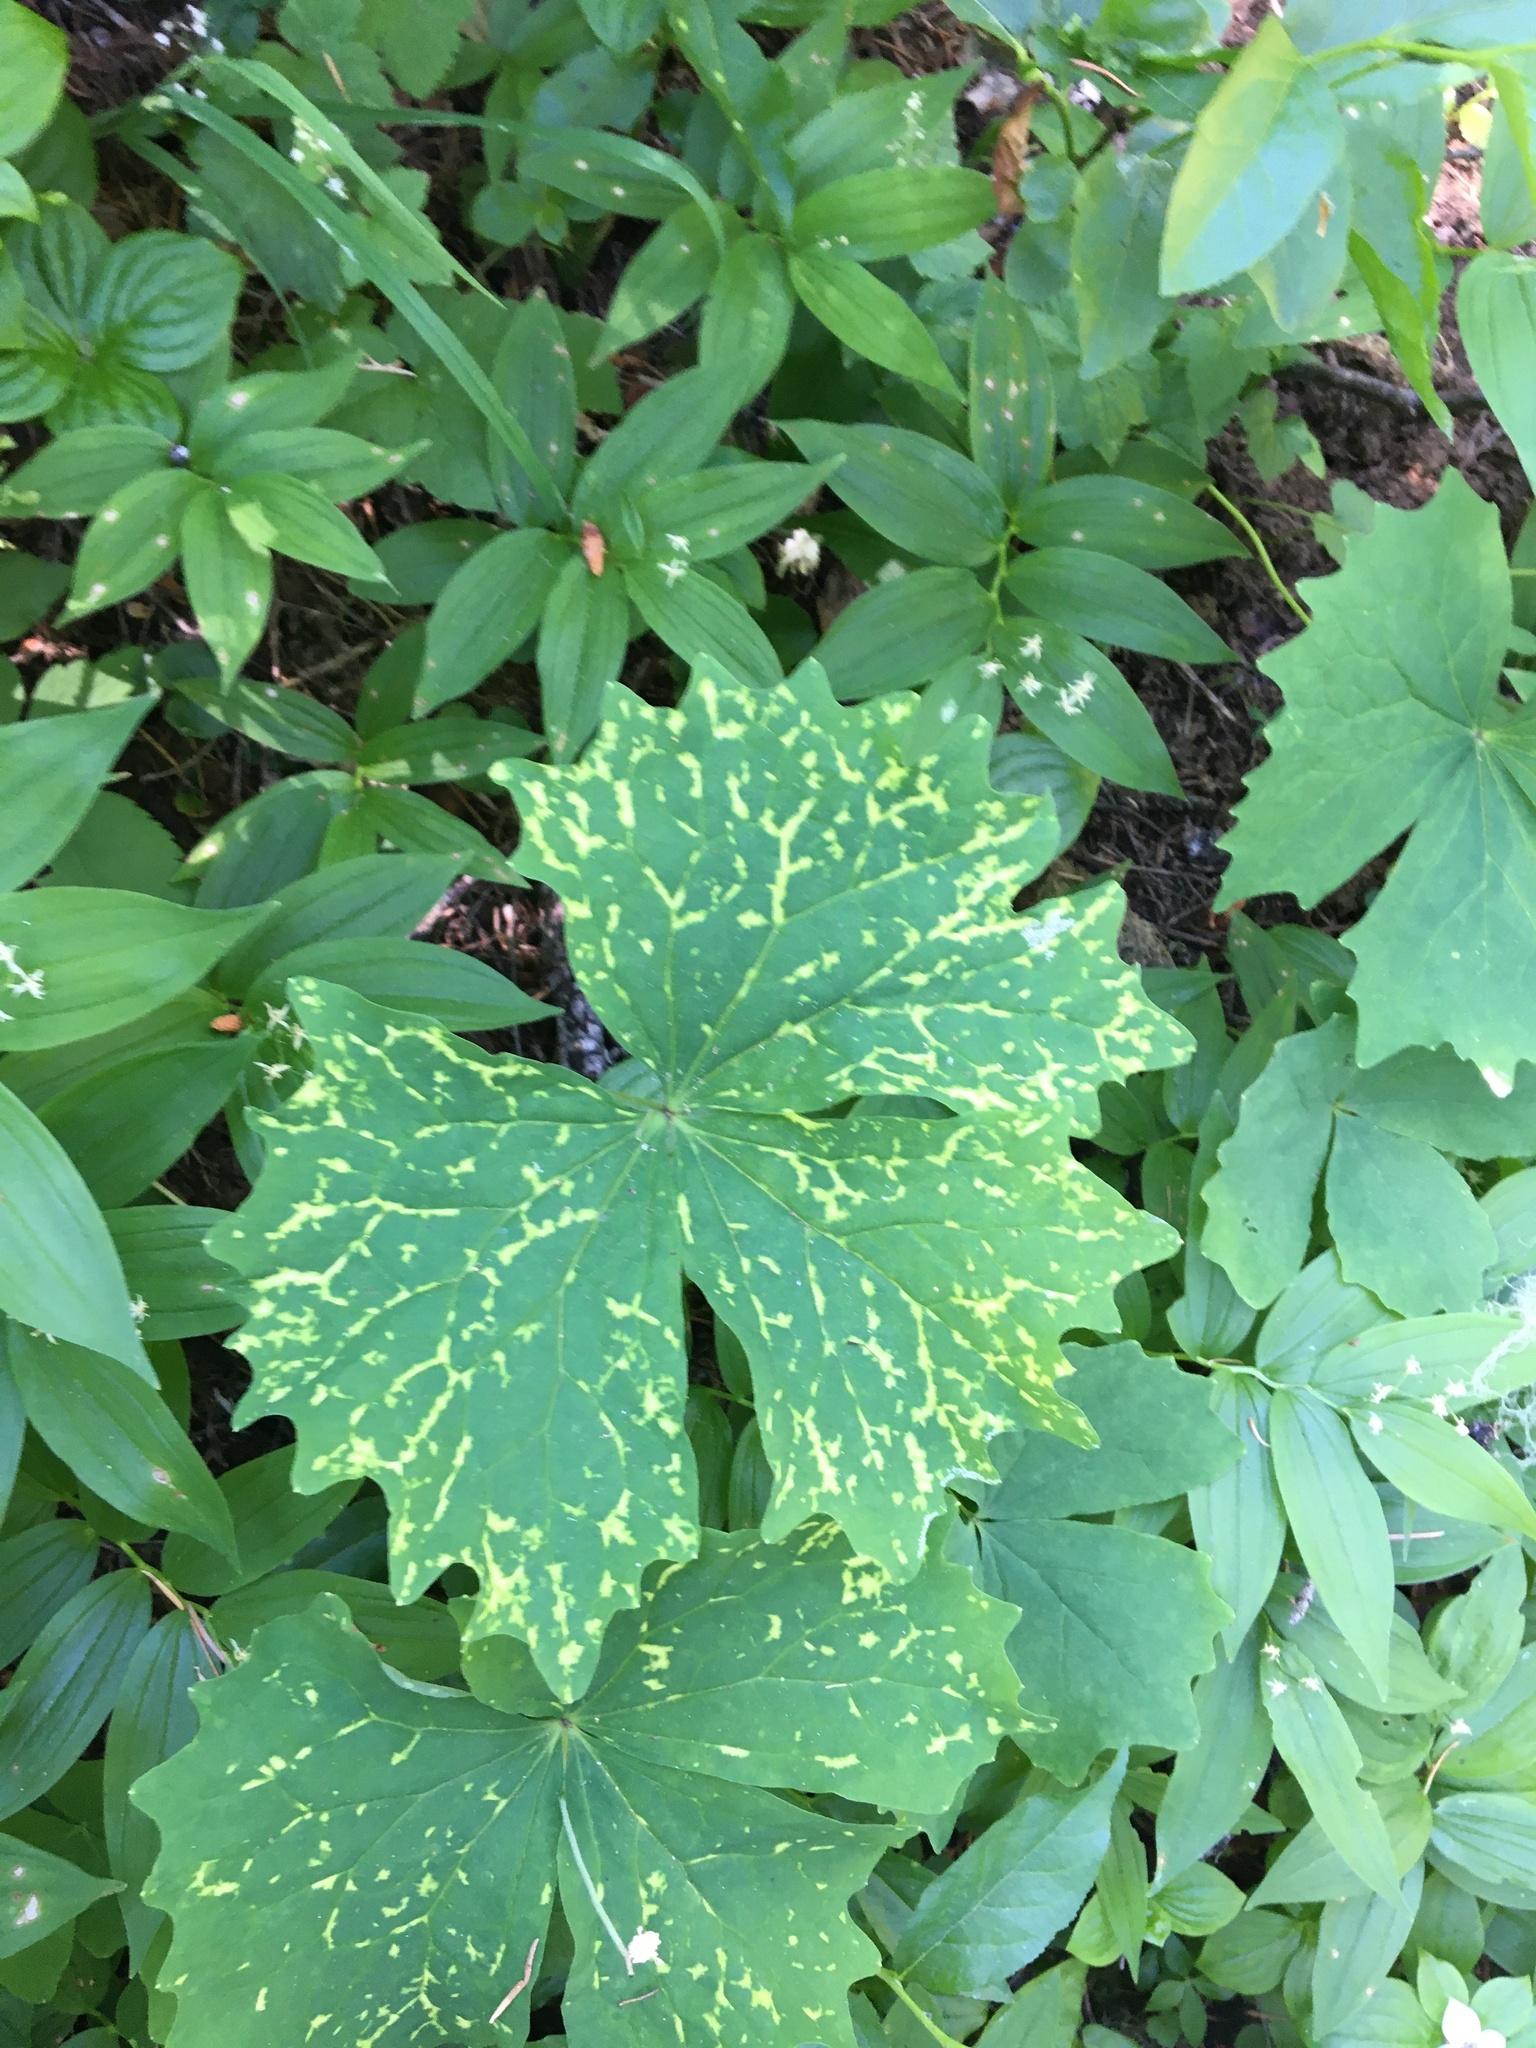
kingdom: Plantae
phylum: Tracheophyta
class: Magnoliopsida
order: Ranunculales
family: Berberidaceae
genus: Achlys
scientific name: Achlys triphylla
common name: Vanilla-leaf
